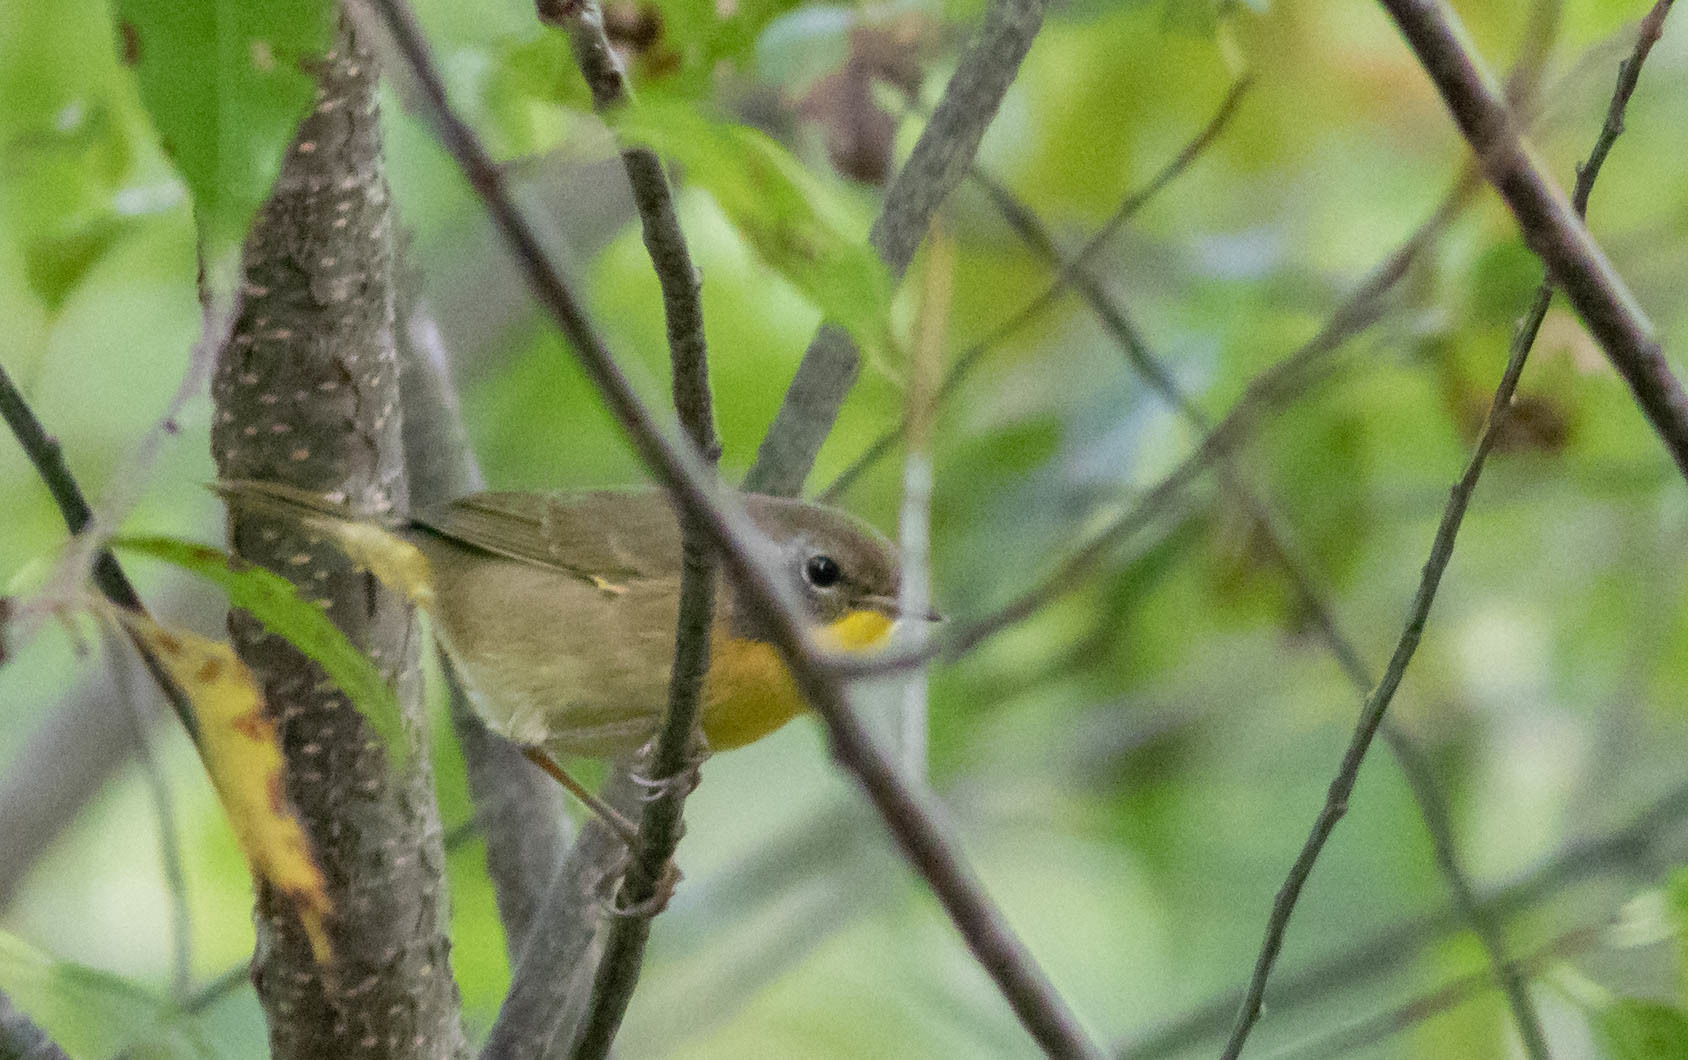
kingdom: Animalia
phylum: Chordata
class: Aves
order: Passeriformes
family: Parulidae
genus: Geothlypis
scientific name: Geothlypis trichas
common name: Common yellowthroat
